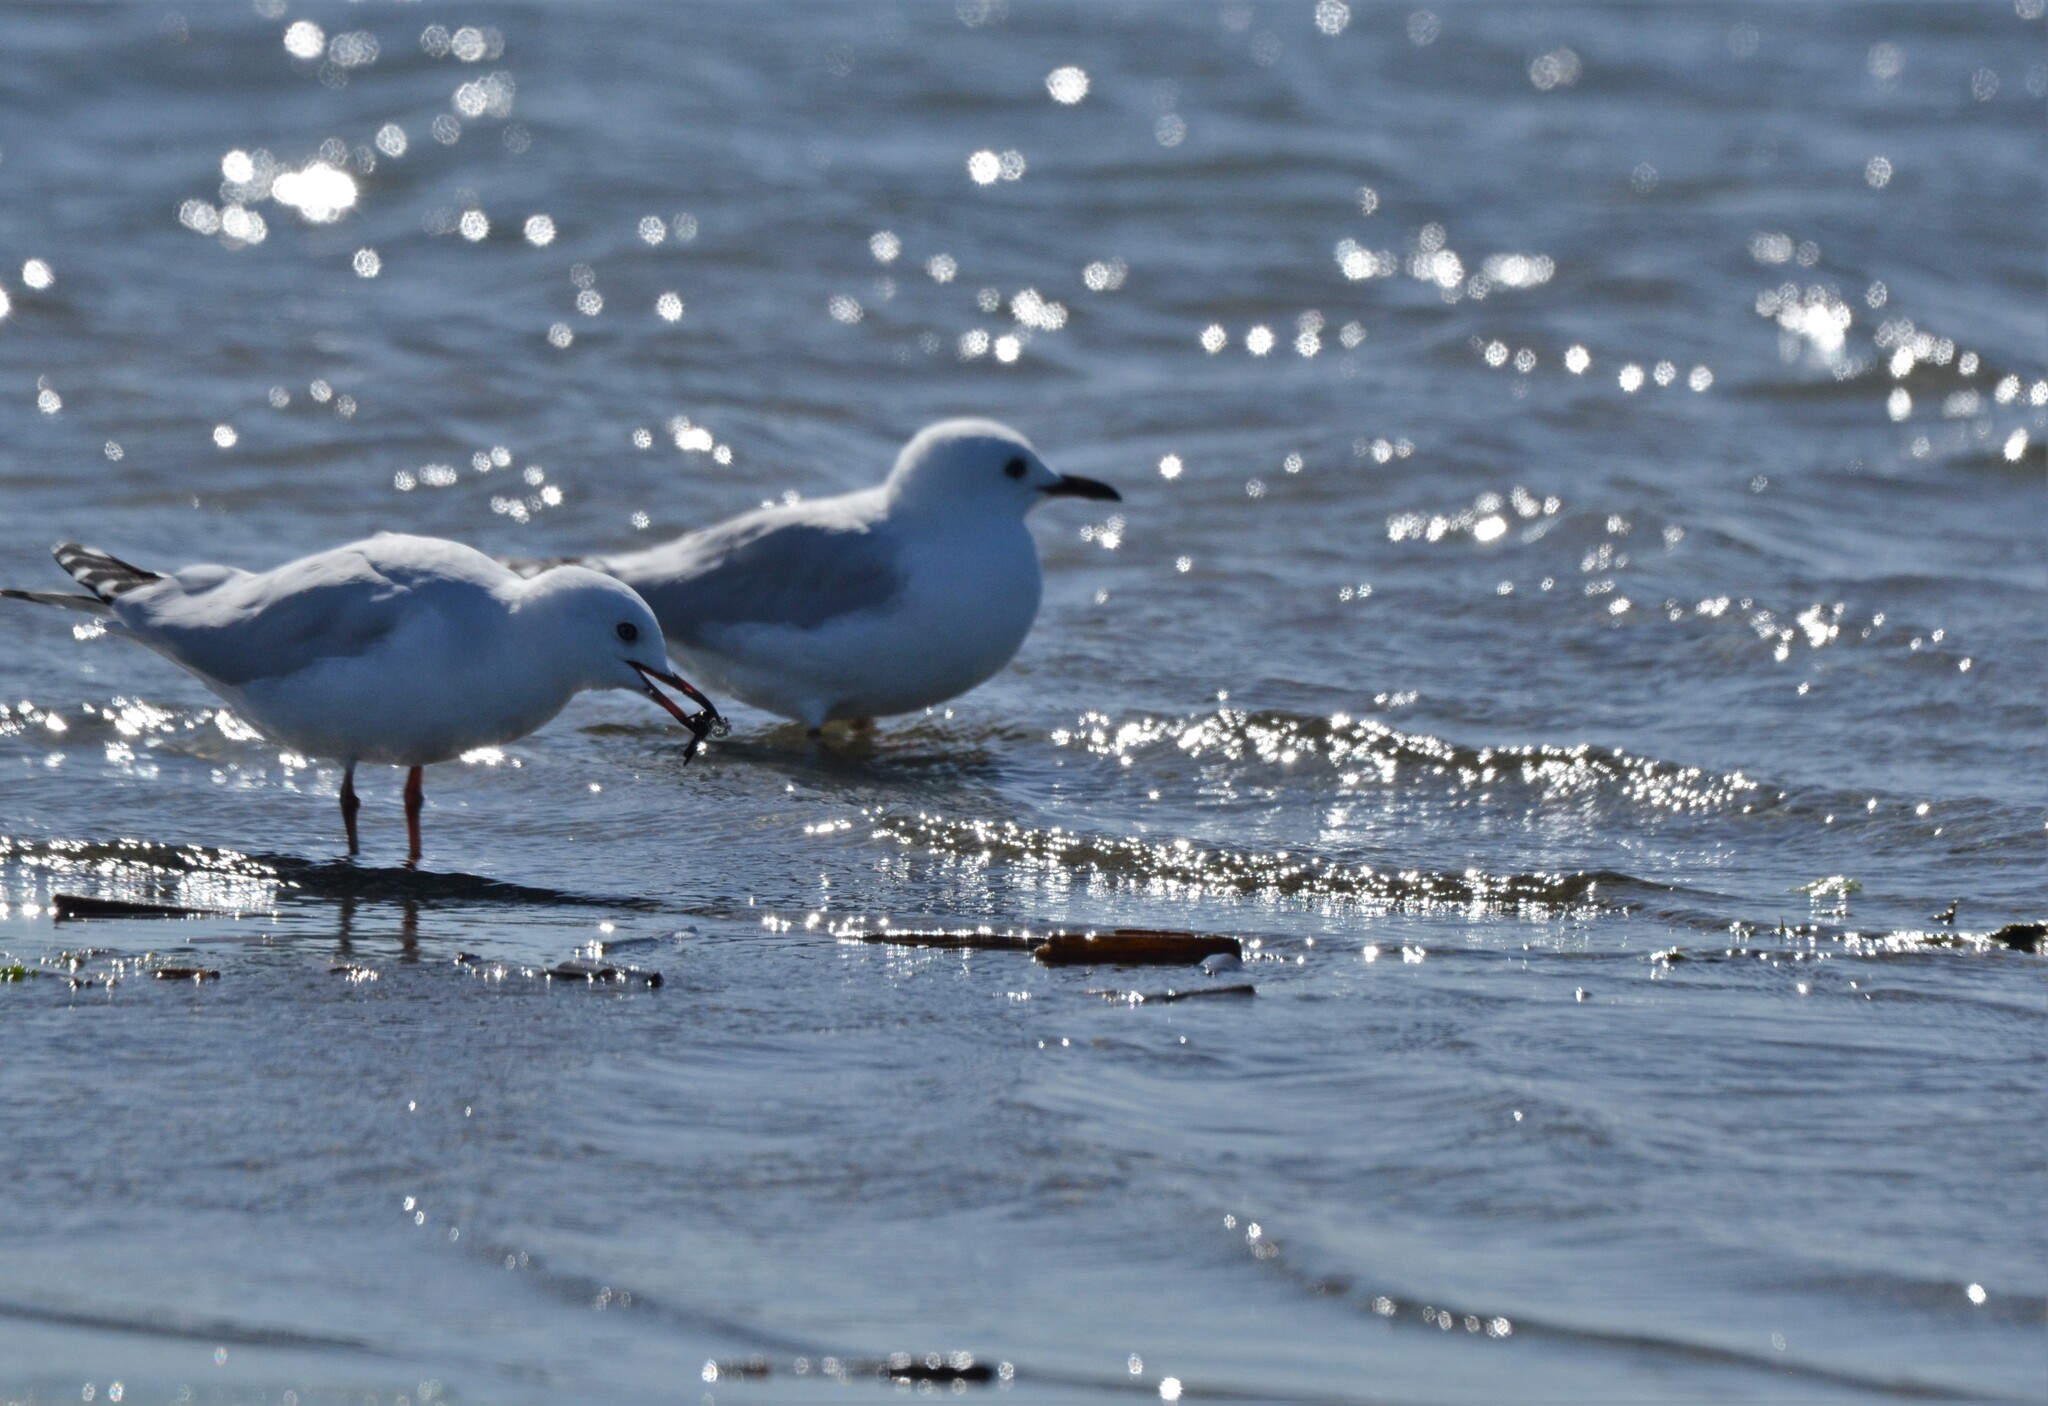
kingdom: Animalia
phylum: Chordata
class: Aves
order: Charadriiformes
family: Laridae
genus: Chroicocephalus
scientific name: Chroicocephalus bulleri
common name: Black-billed gull
